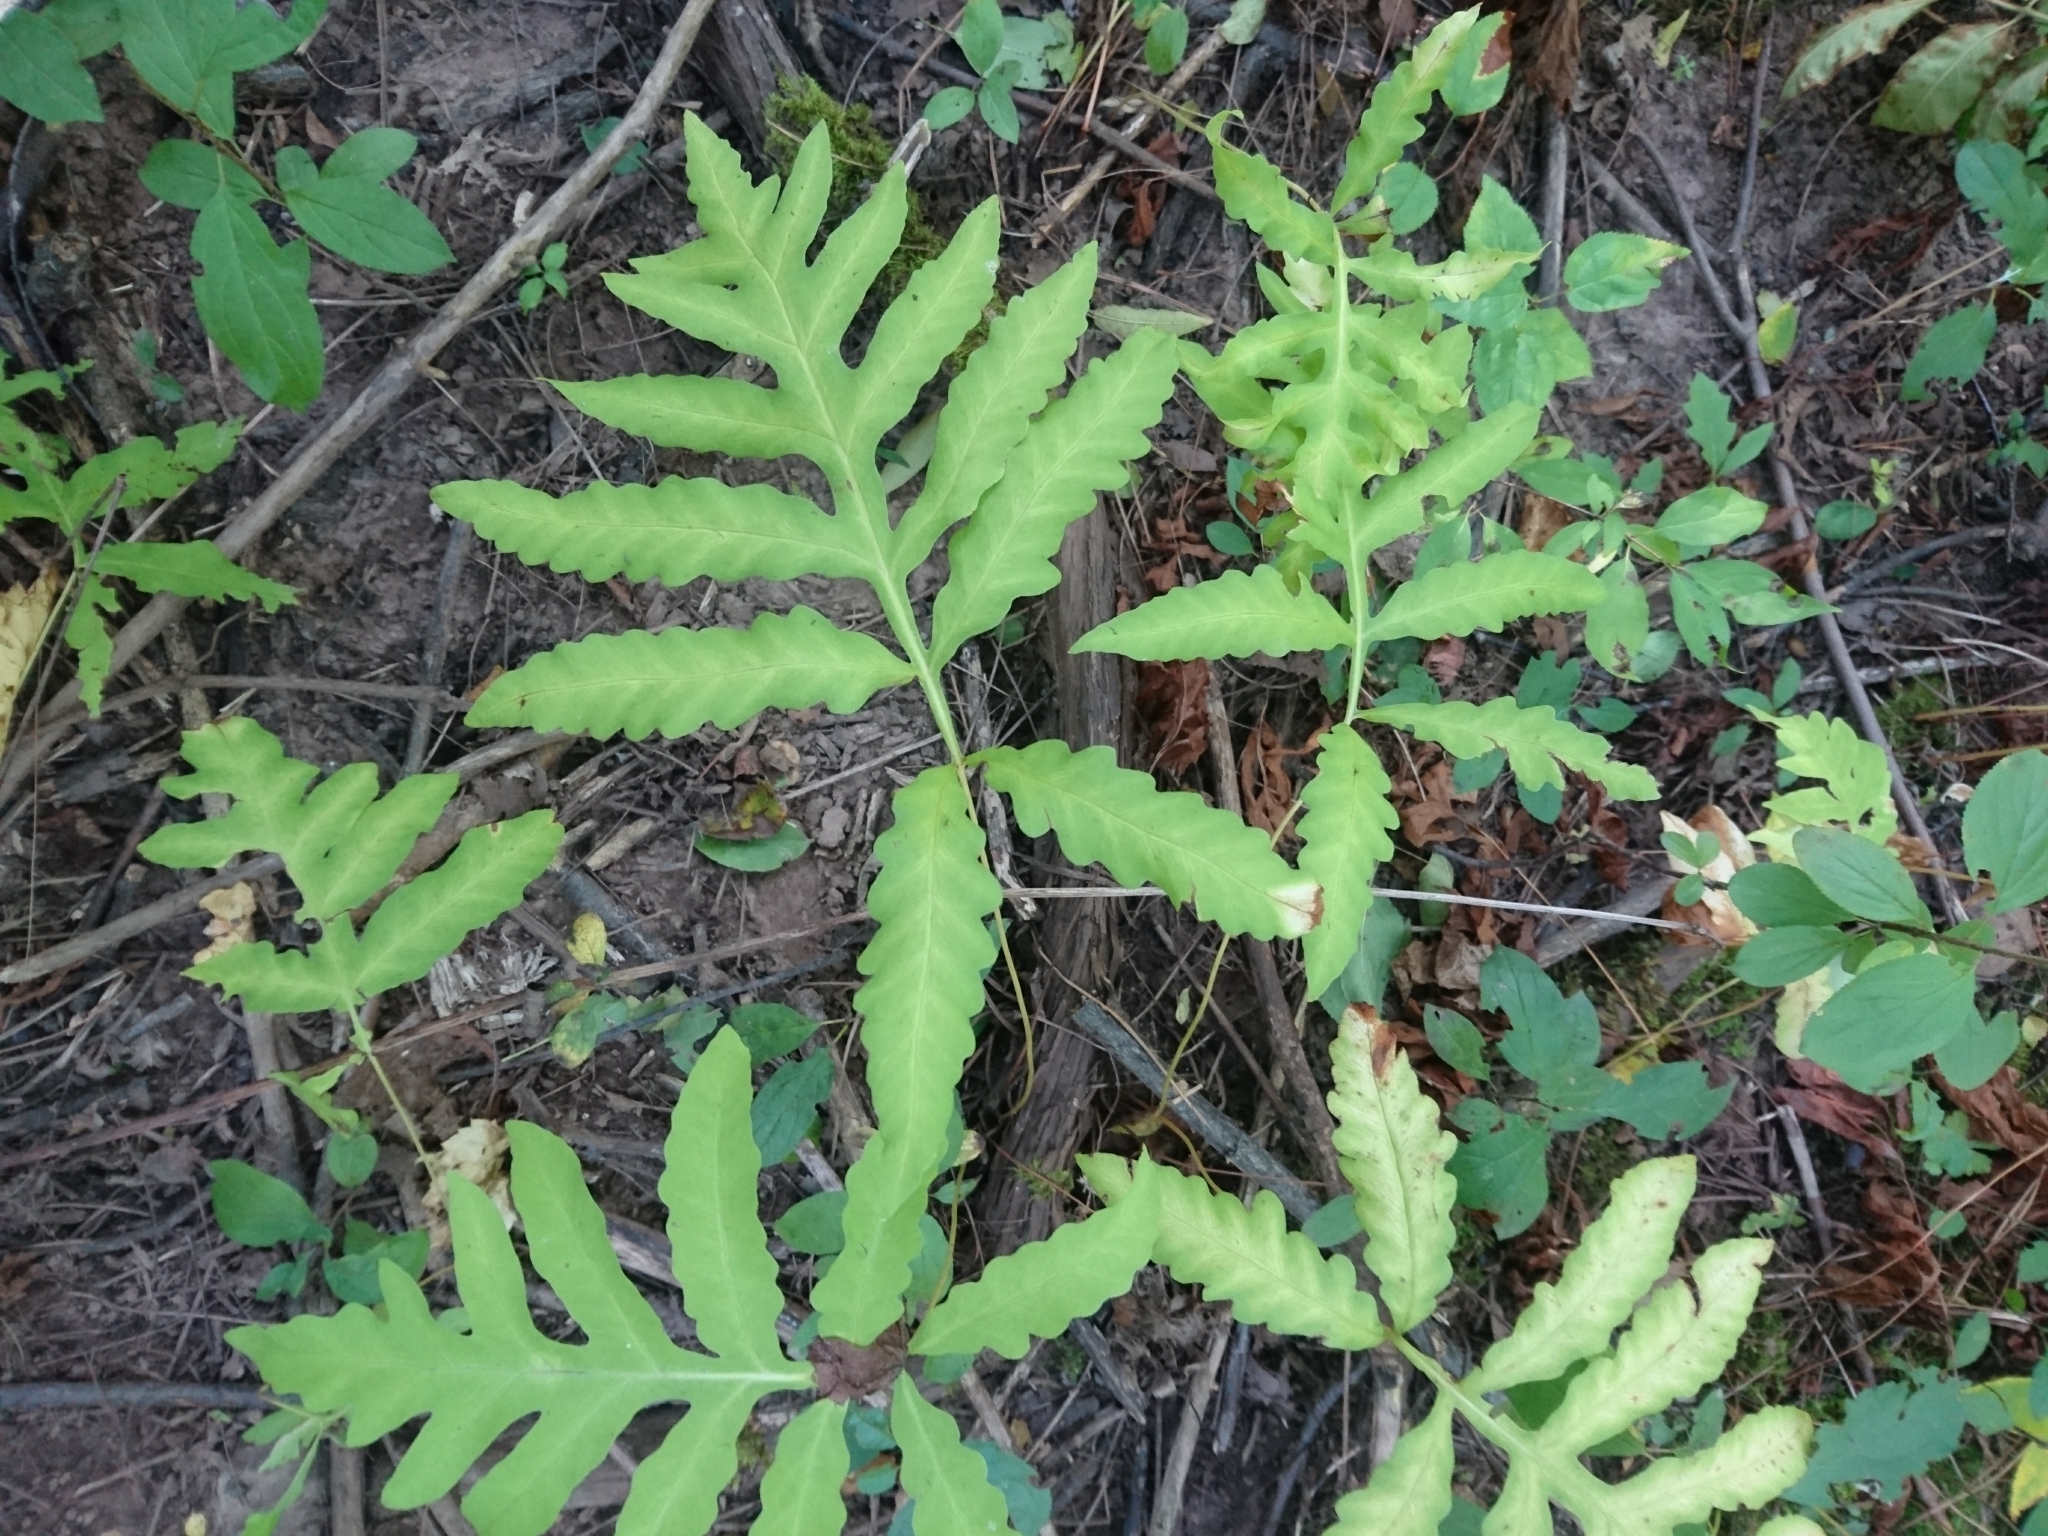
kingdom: Plantae
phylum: Tracheophyta
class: Polypodiopsida
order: Polypodiales
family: Onocleaceae
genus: Onoclea
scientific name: Onoclea sensibilis
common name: Sensitive fern
